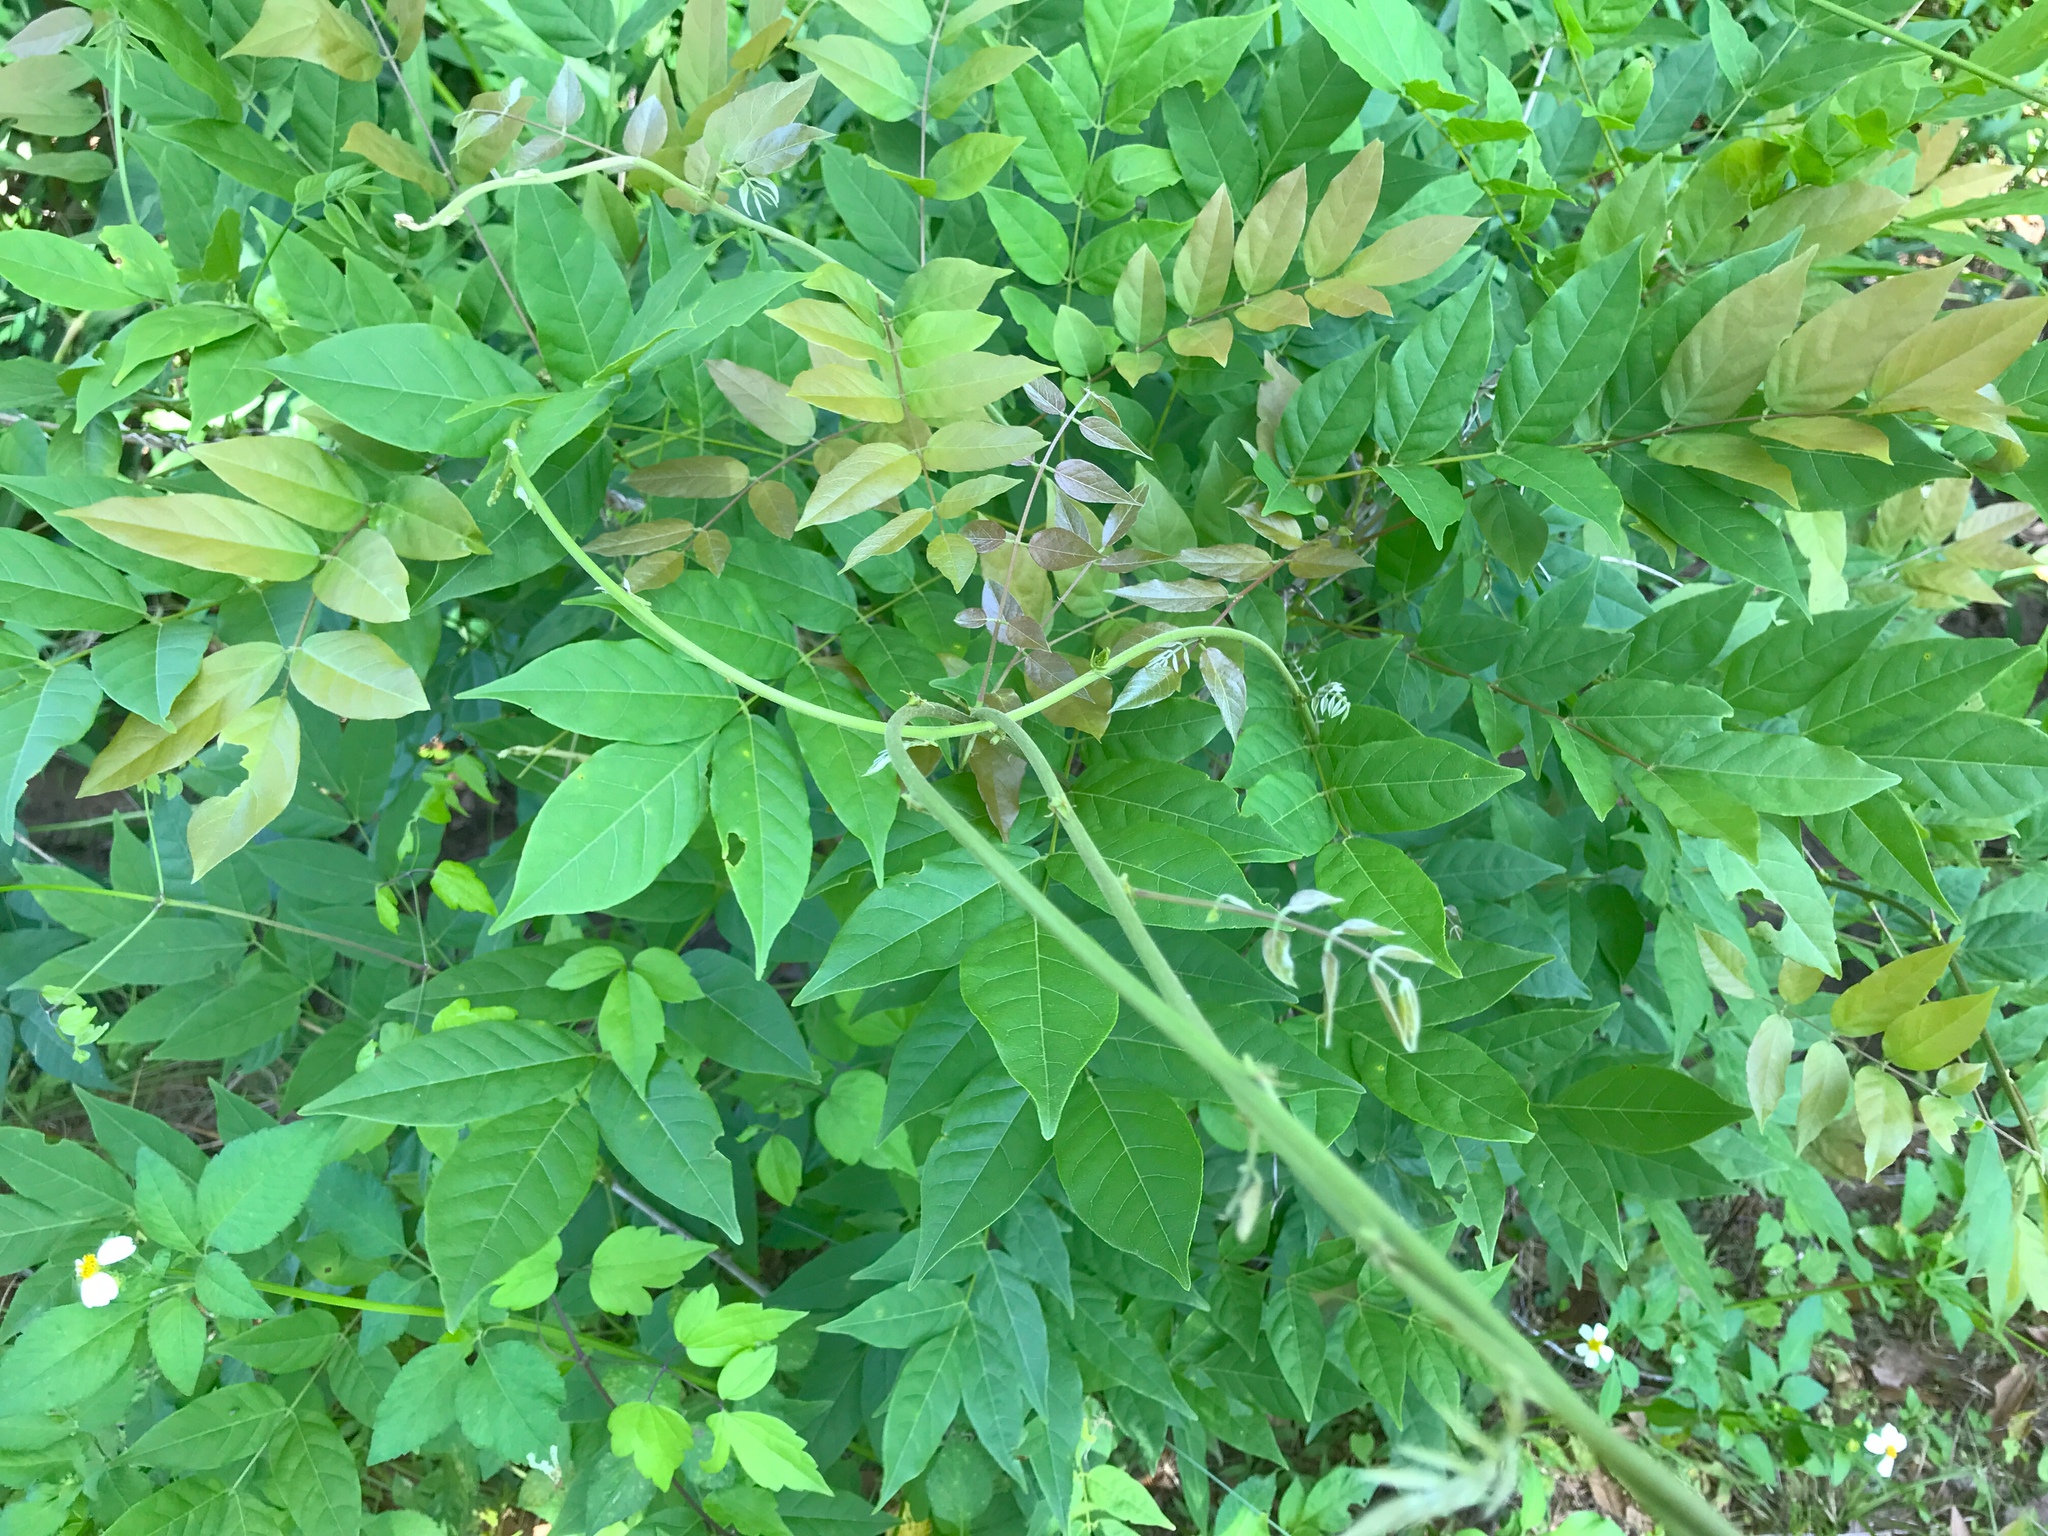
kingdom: Plantae
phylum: Tracheophyta
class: Magnoliopsida
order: Fabales
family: Fabaceae
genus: Wisteria
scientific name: Wisteria sinensis
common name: Chinese wisteria
